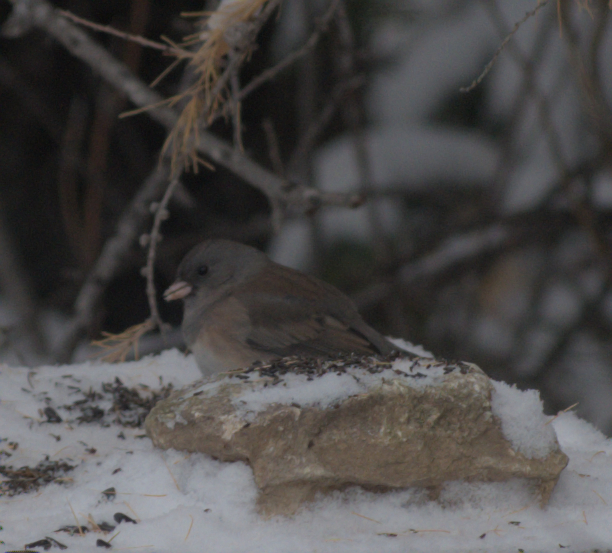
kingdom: Animalia
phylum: Chordata
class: Aves
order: Passeriformes
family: Passerellidae
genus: Junco
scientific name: Junco hyemalis
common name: Dark-eyed junco
